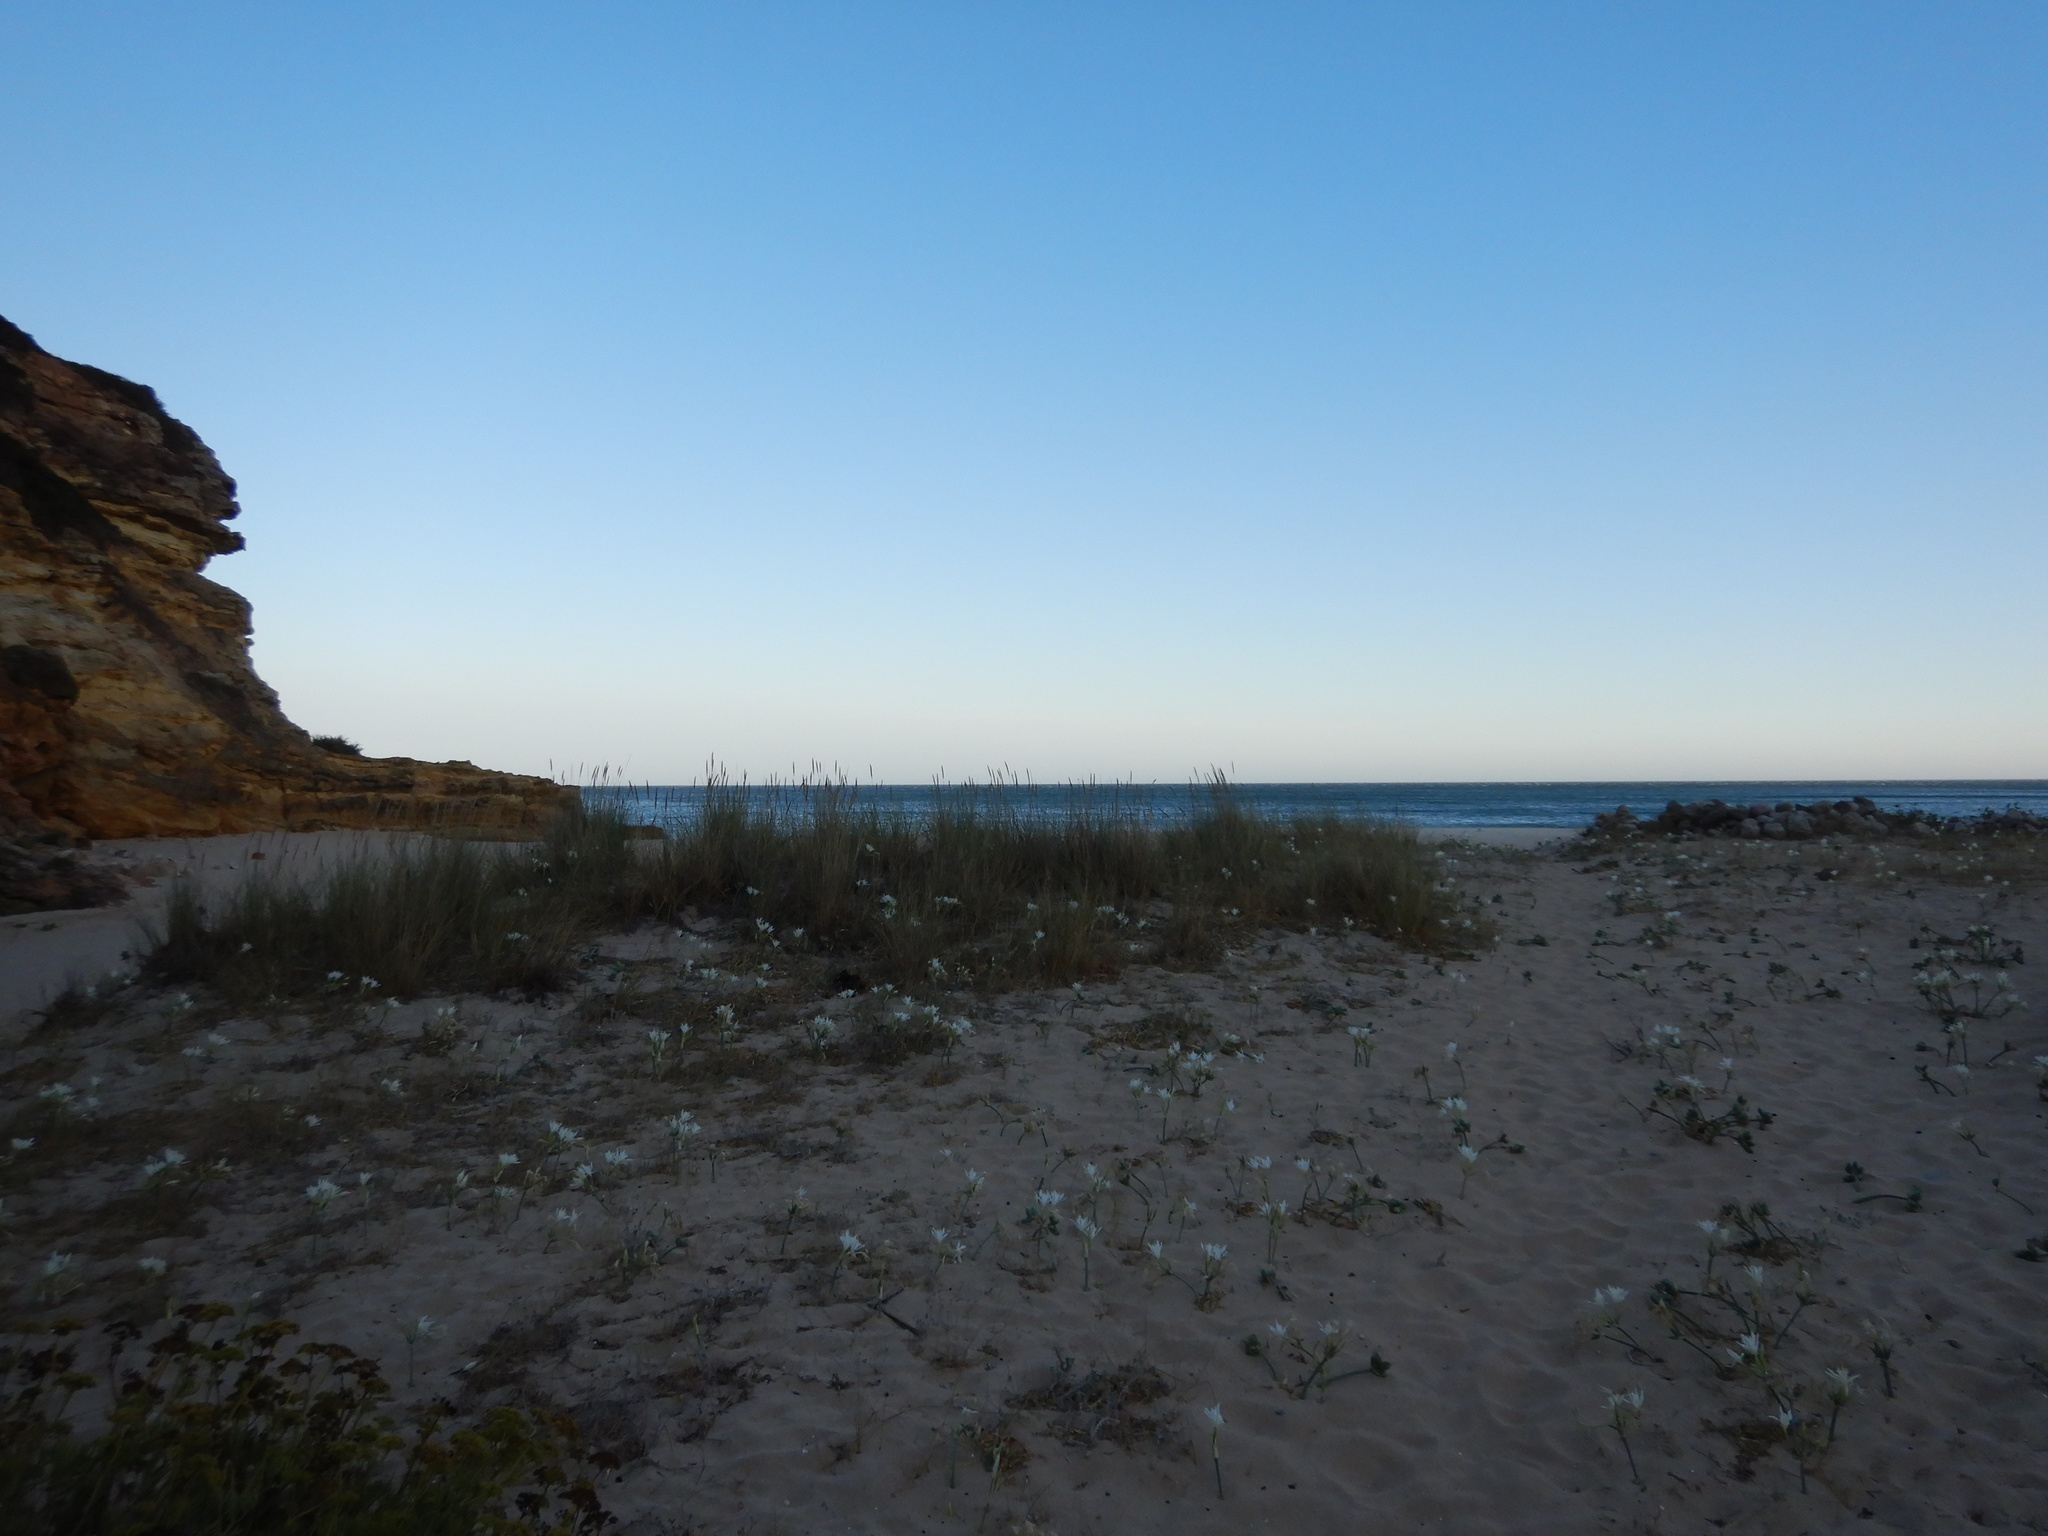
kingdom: Plantae
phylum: Tracheophyta
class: Liliopsida
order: Asparagales
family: Amaryllidaceae
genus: Pancratium
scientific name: Pancratium maritimum
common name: Sea-daffodil
